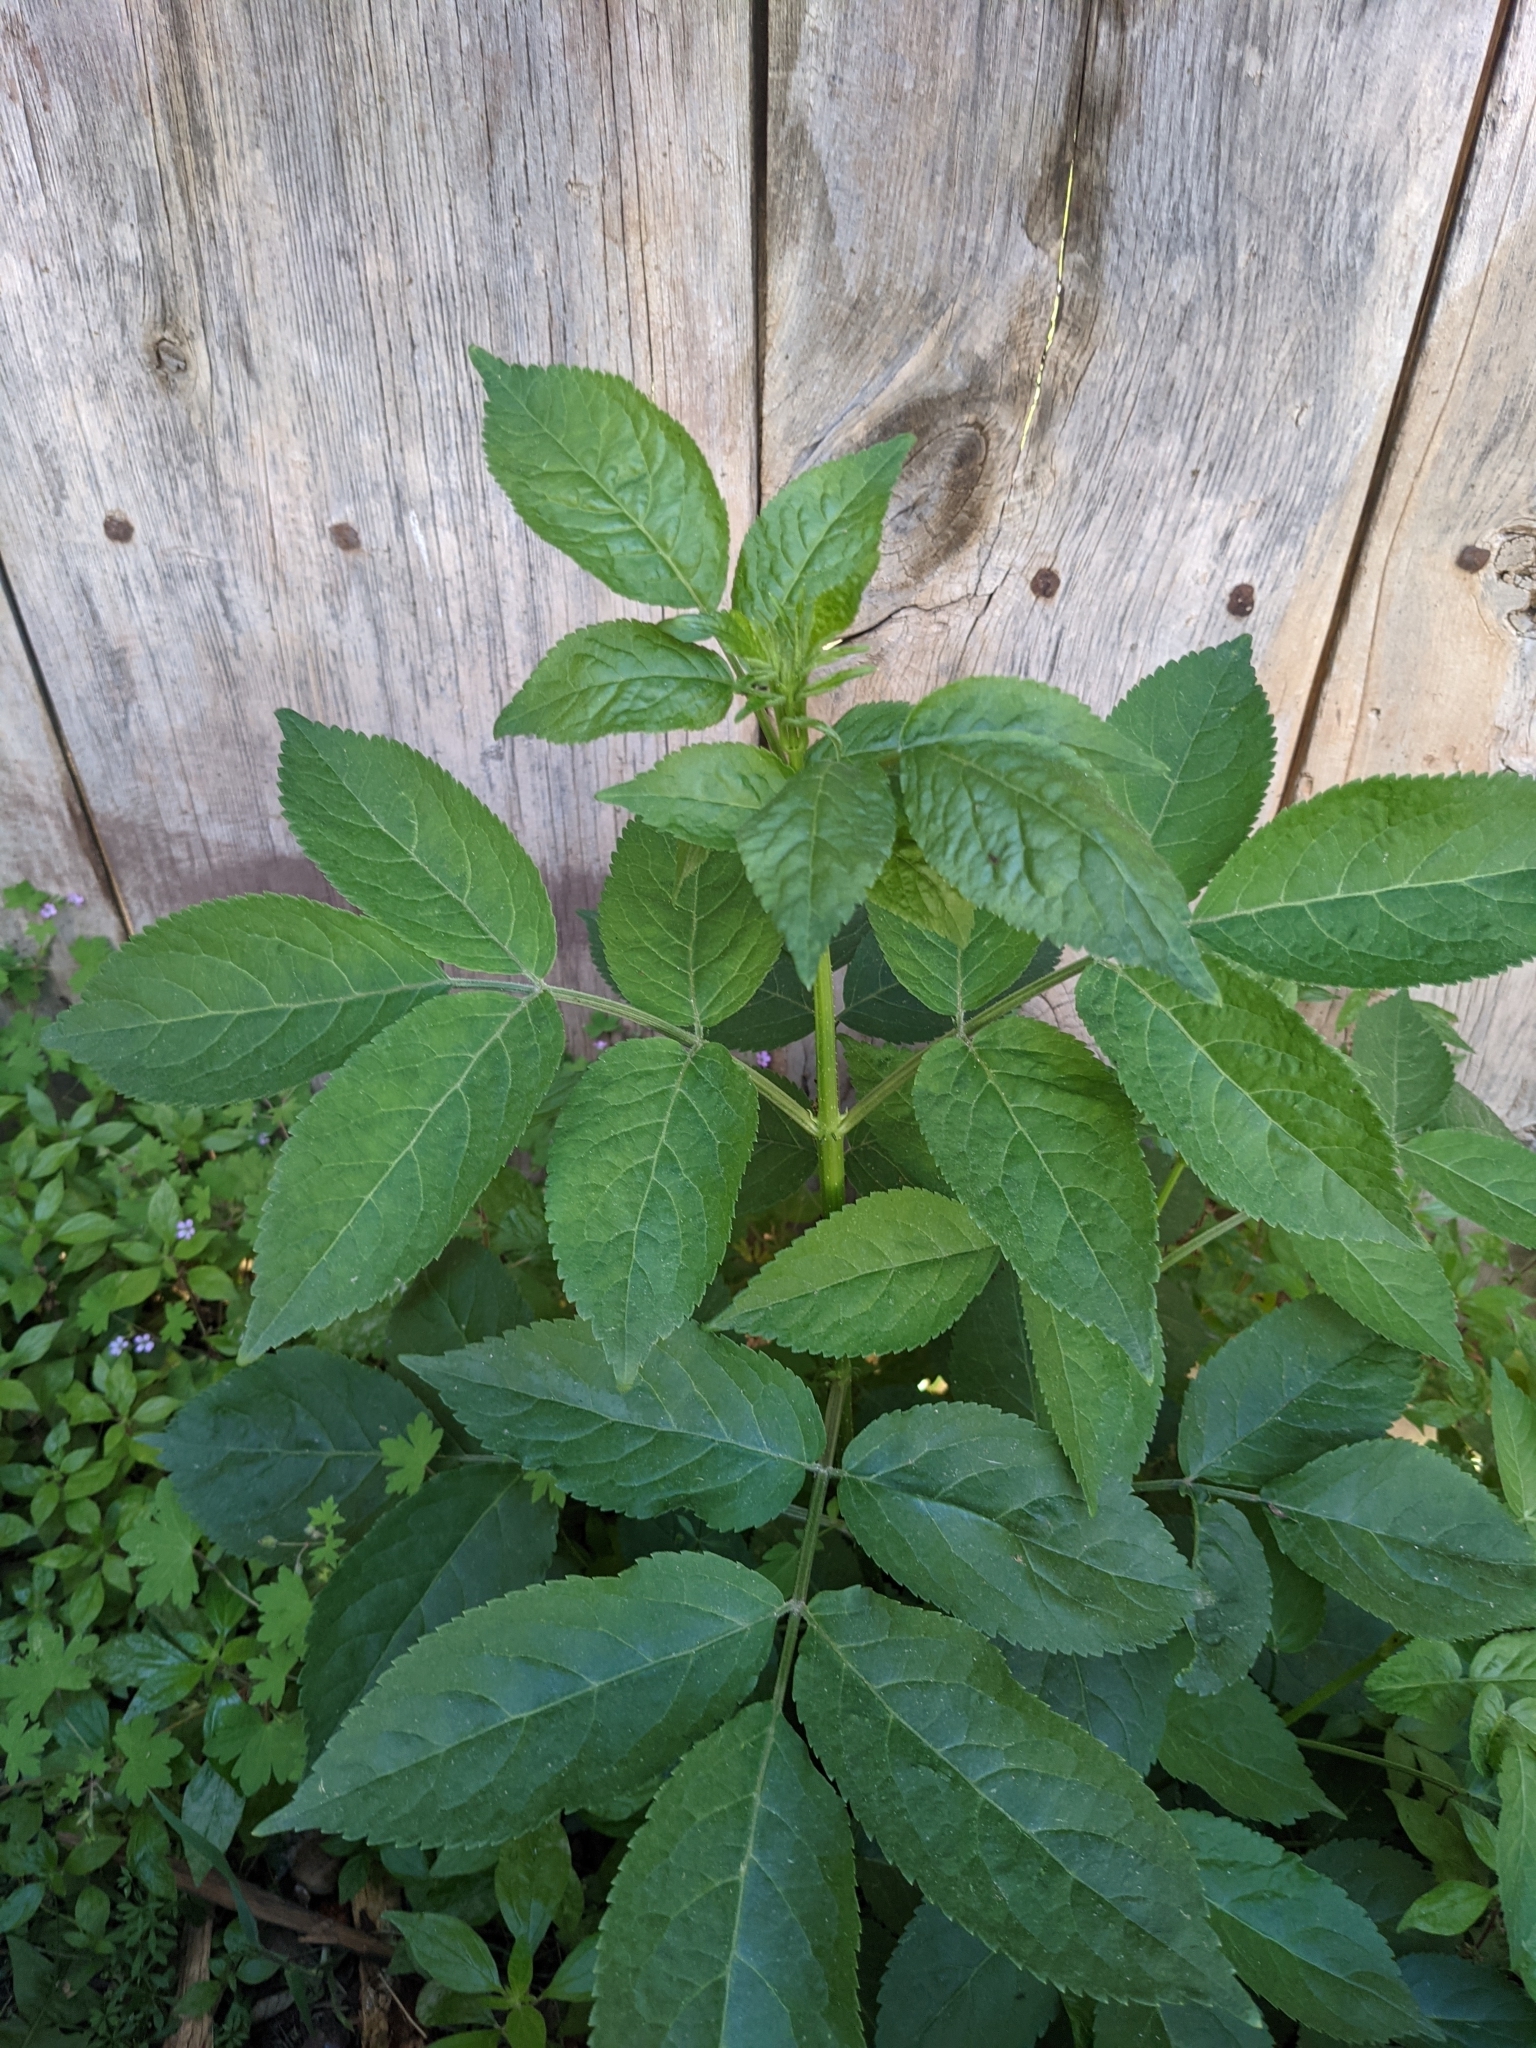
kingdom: Plantae
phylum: Tracheophyta
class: Magnoliopsida
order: Dipsacales
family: Viburnaceae
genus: Sambucus
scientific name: Sambucus nigra
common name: Elder
